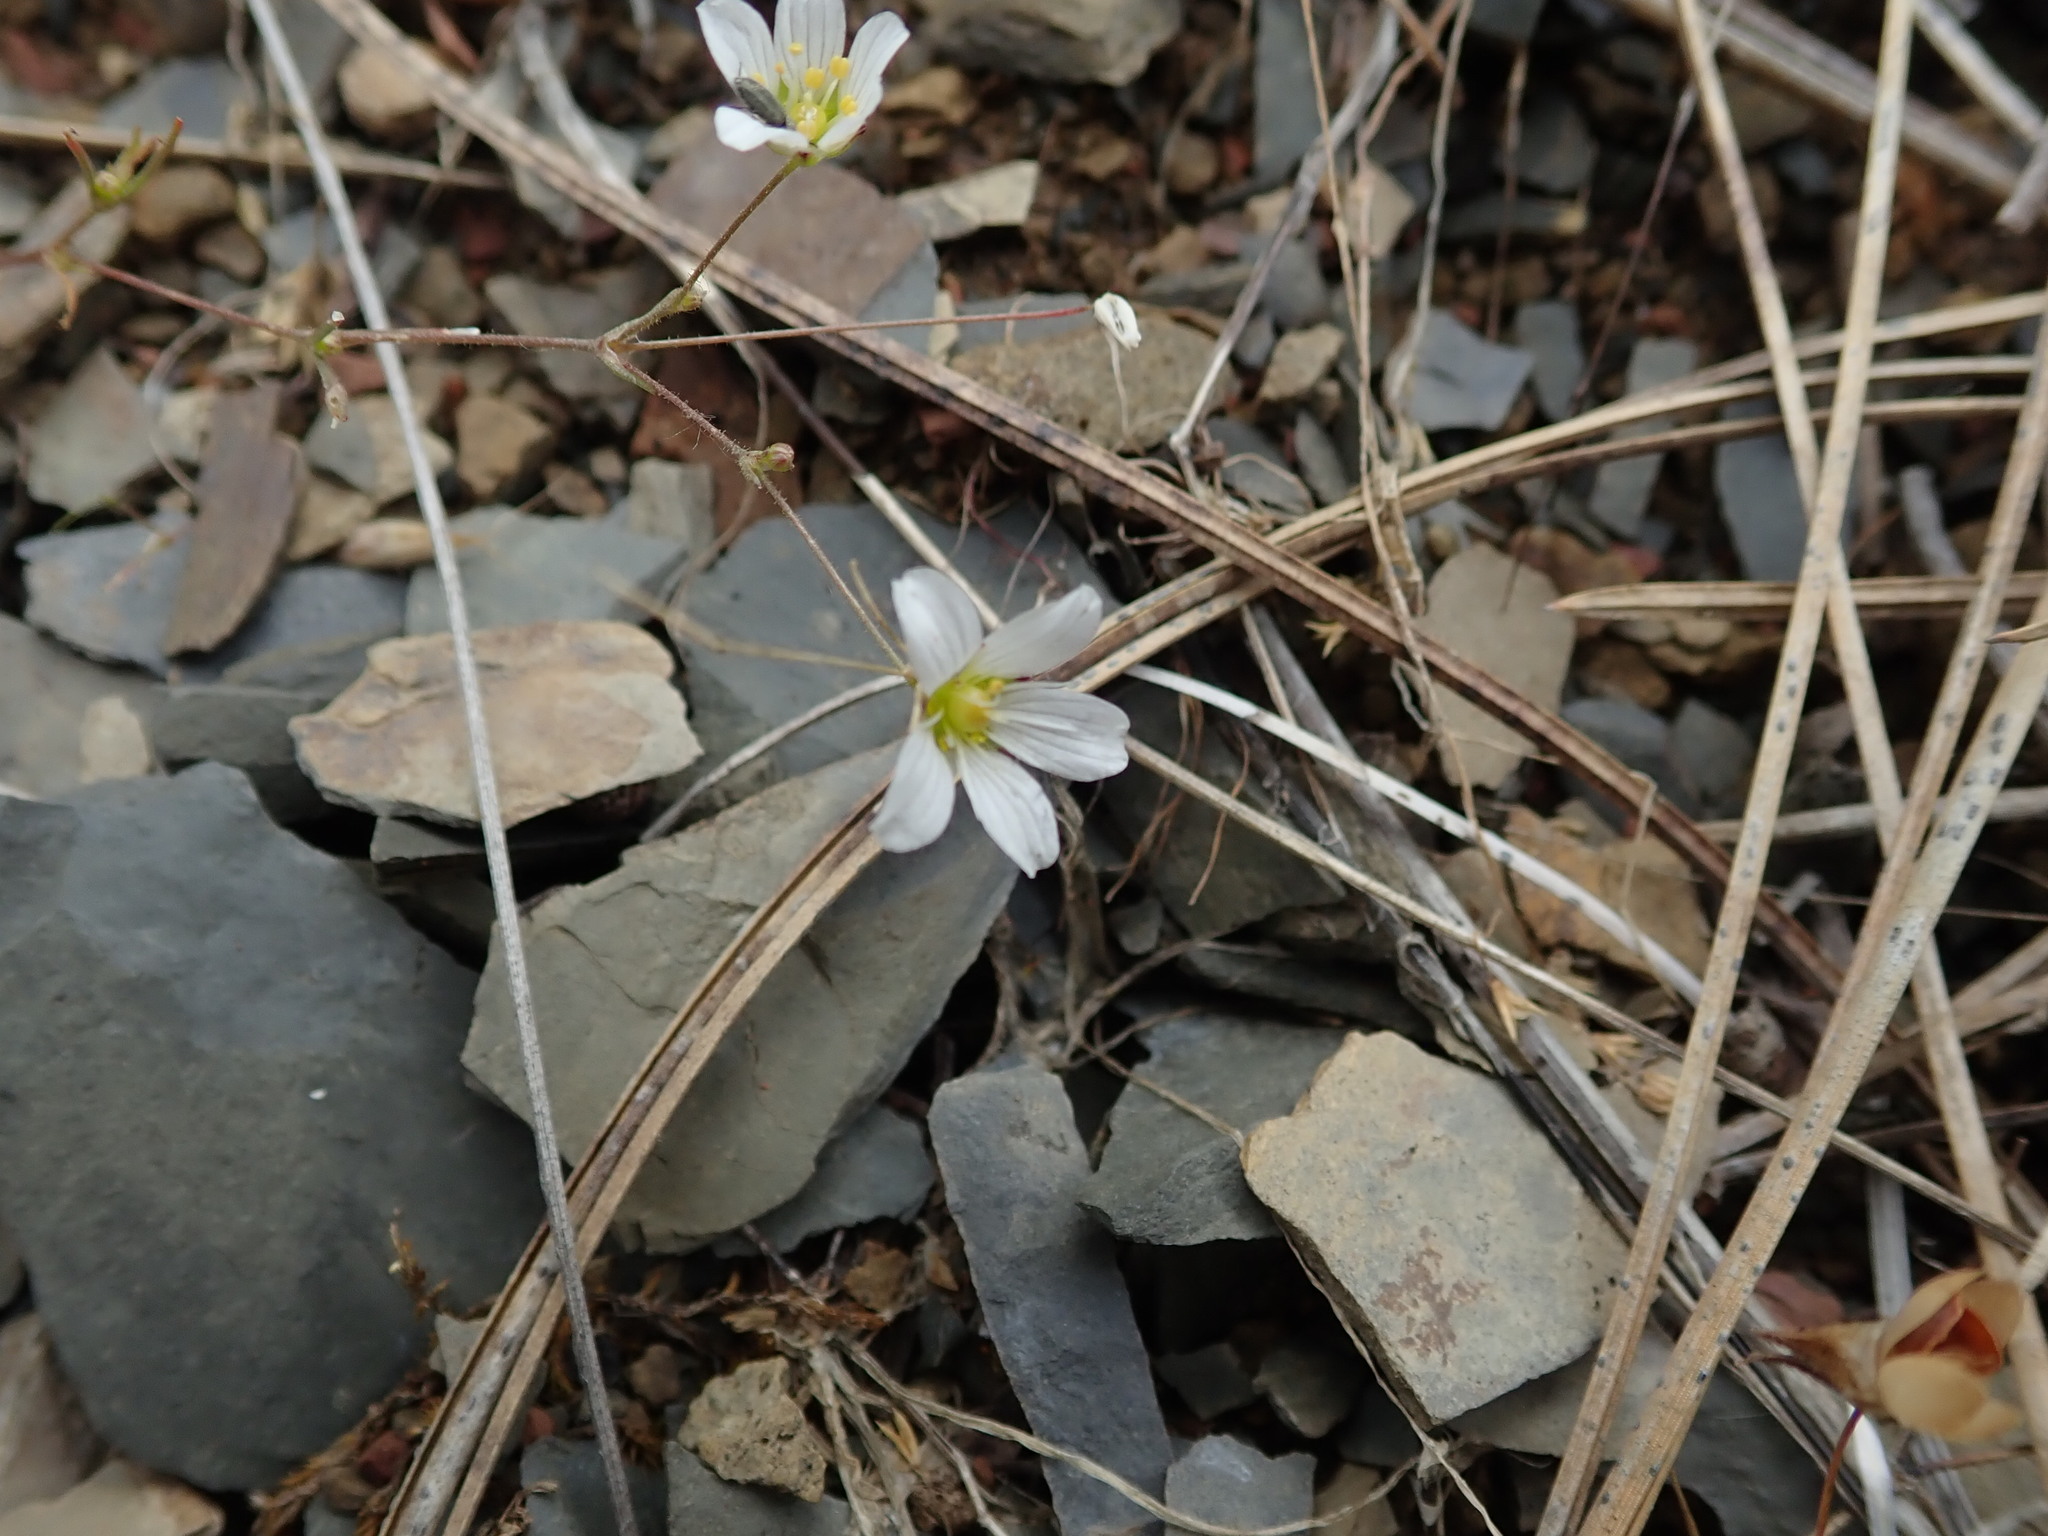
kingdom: Plantae
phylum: Tracheophyta
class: Magnoliopsida
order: Caryophyllales
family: Caryophyllaceae
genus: Sabulina
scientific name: Sabulina douglasii
